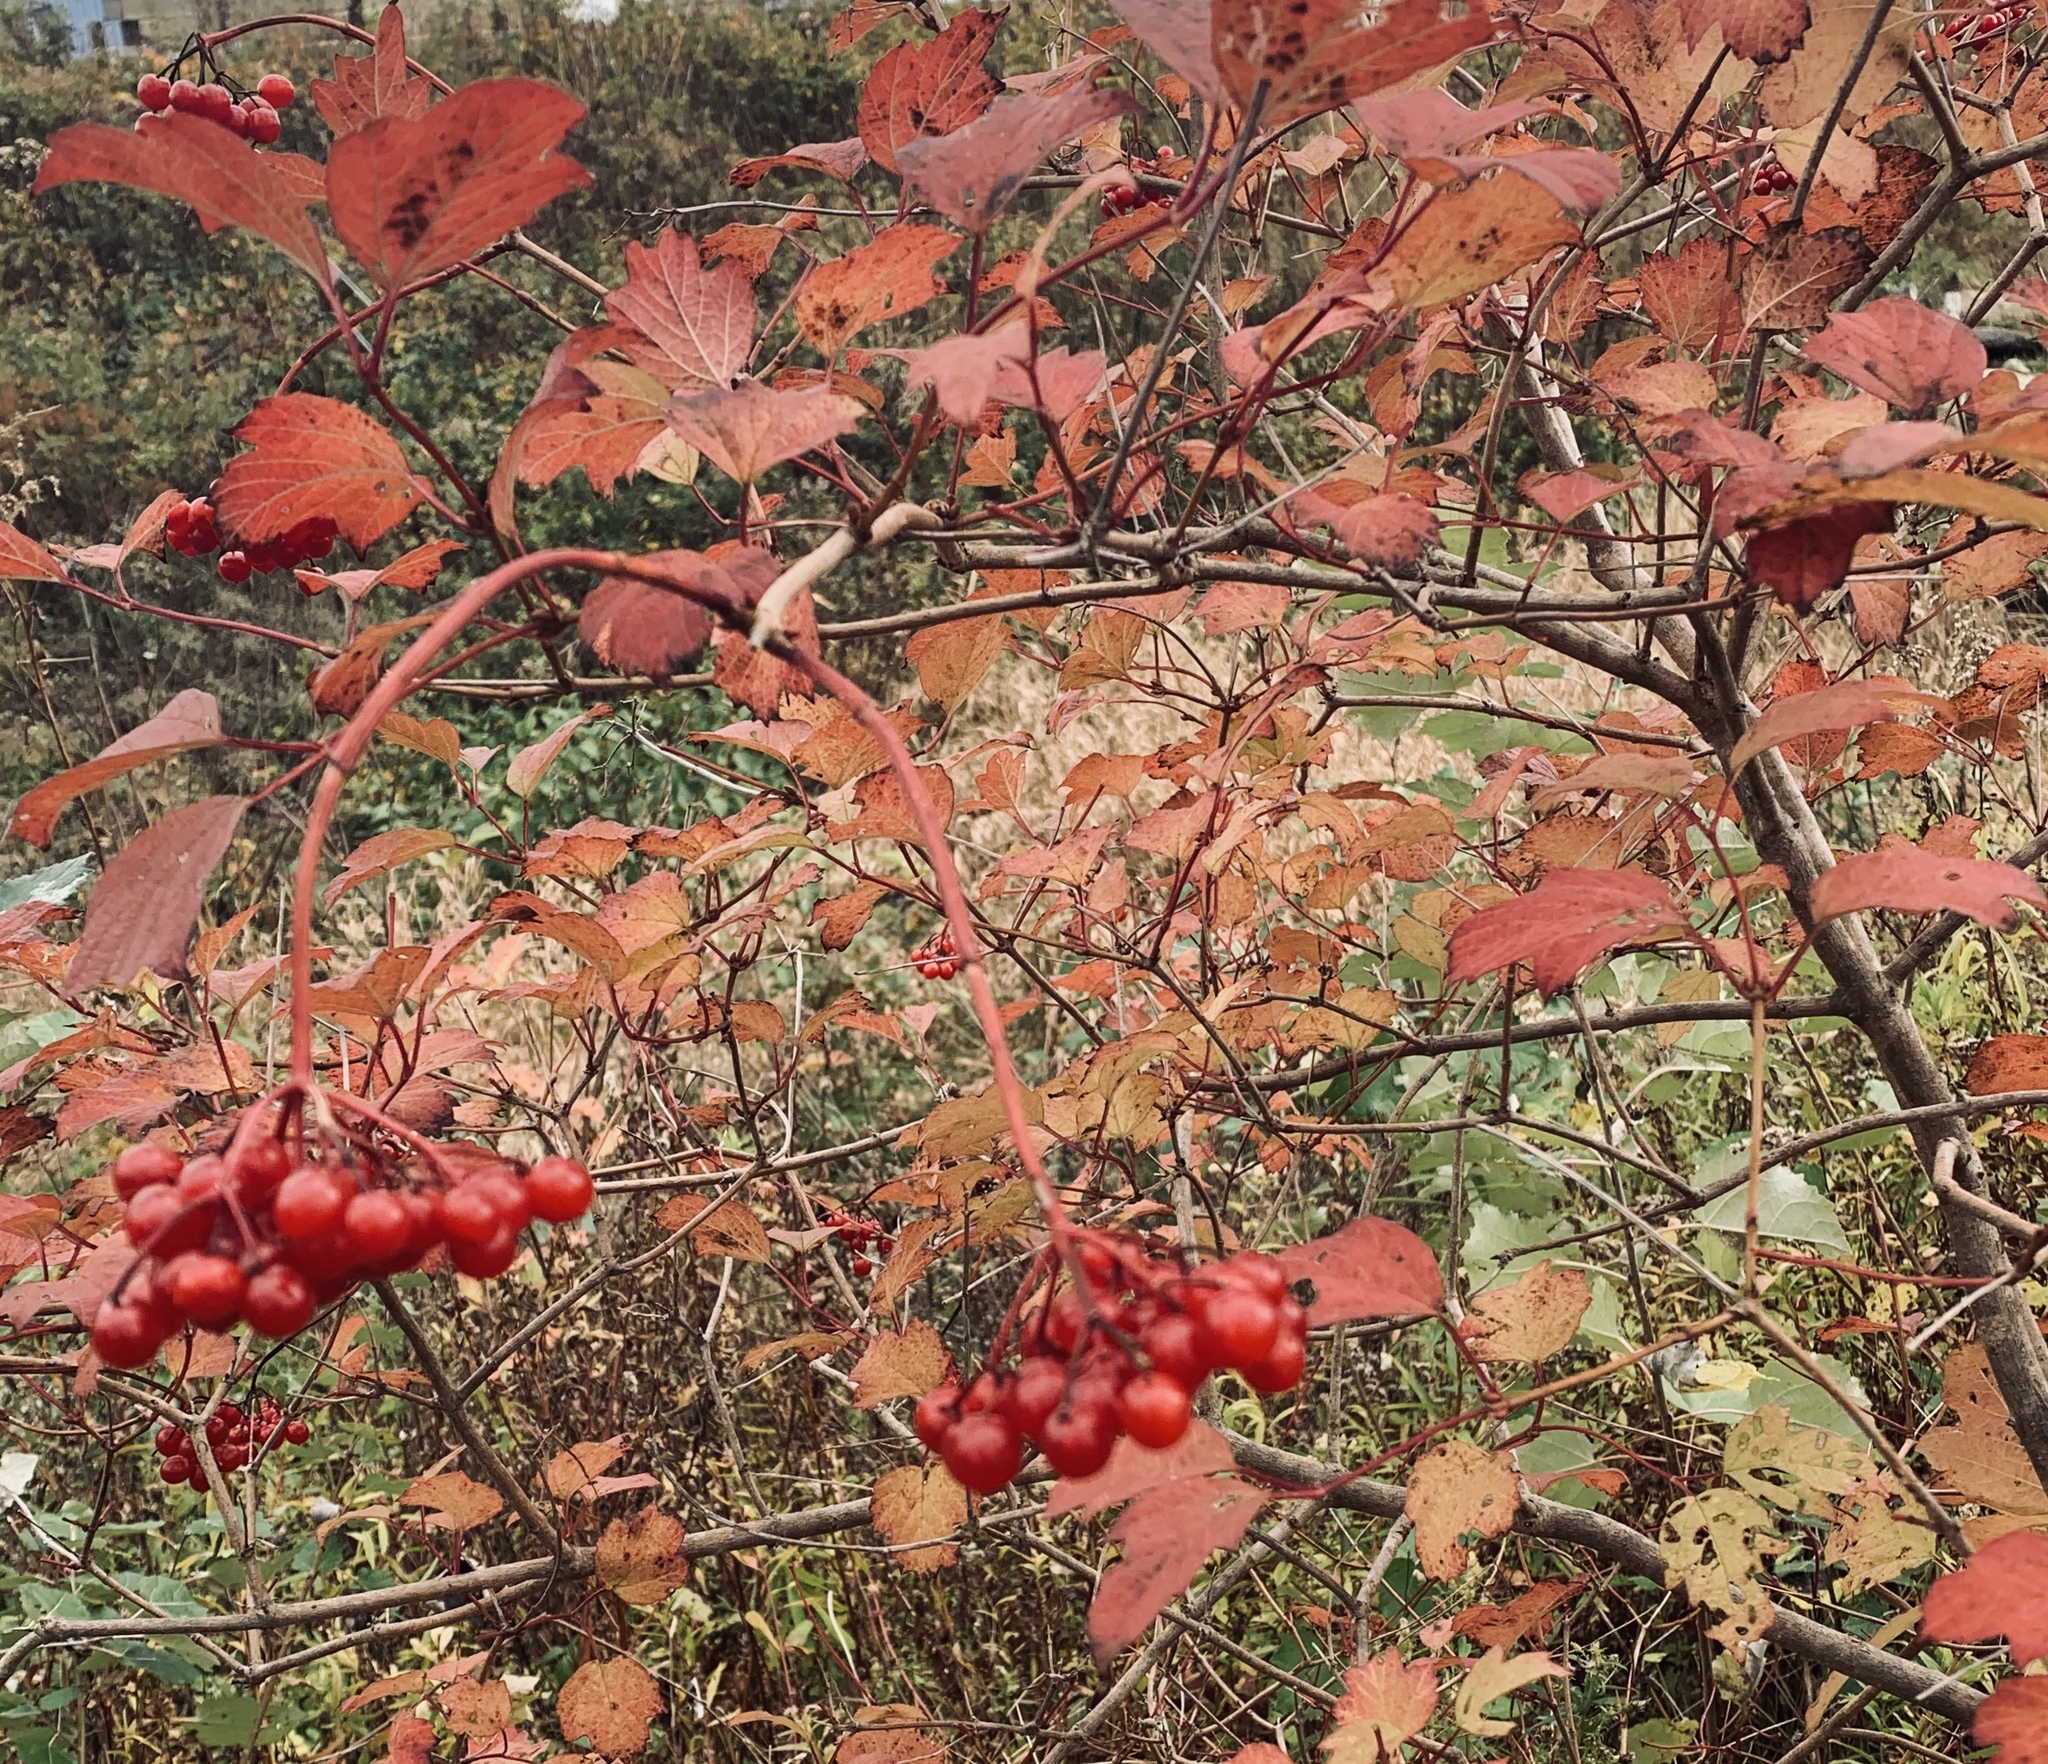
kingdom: Plantae
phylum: Tracheophyta
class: Magnoliopsida
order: Dipsacales
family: Viburnaceae
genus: Viburnum
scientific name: Viburnum opulus
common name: Guelder-rose
